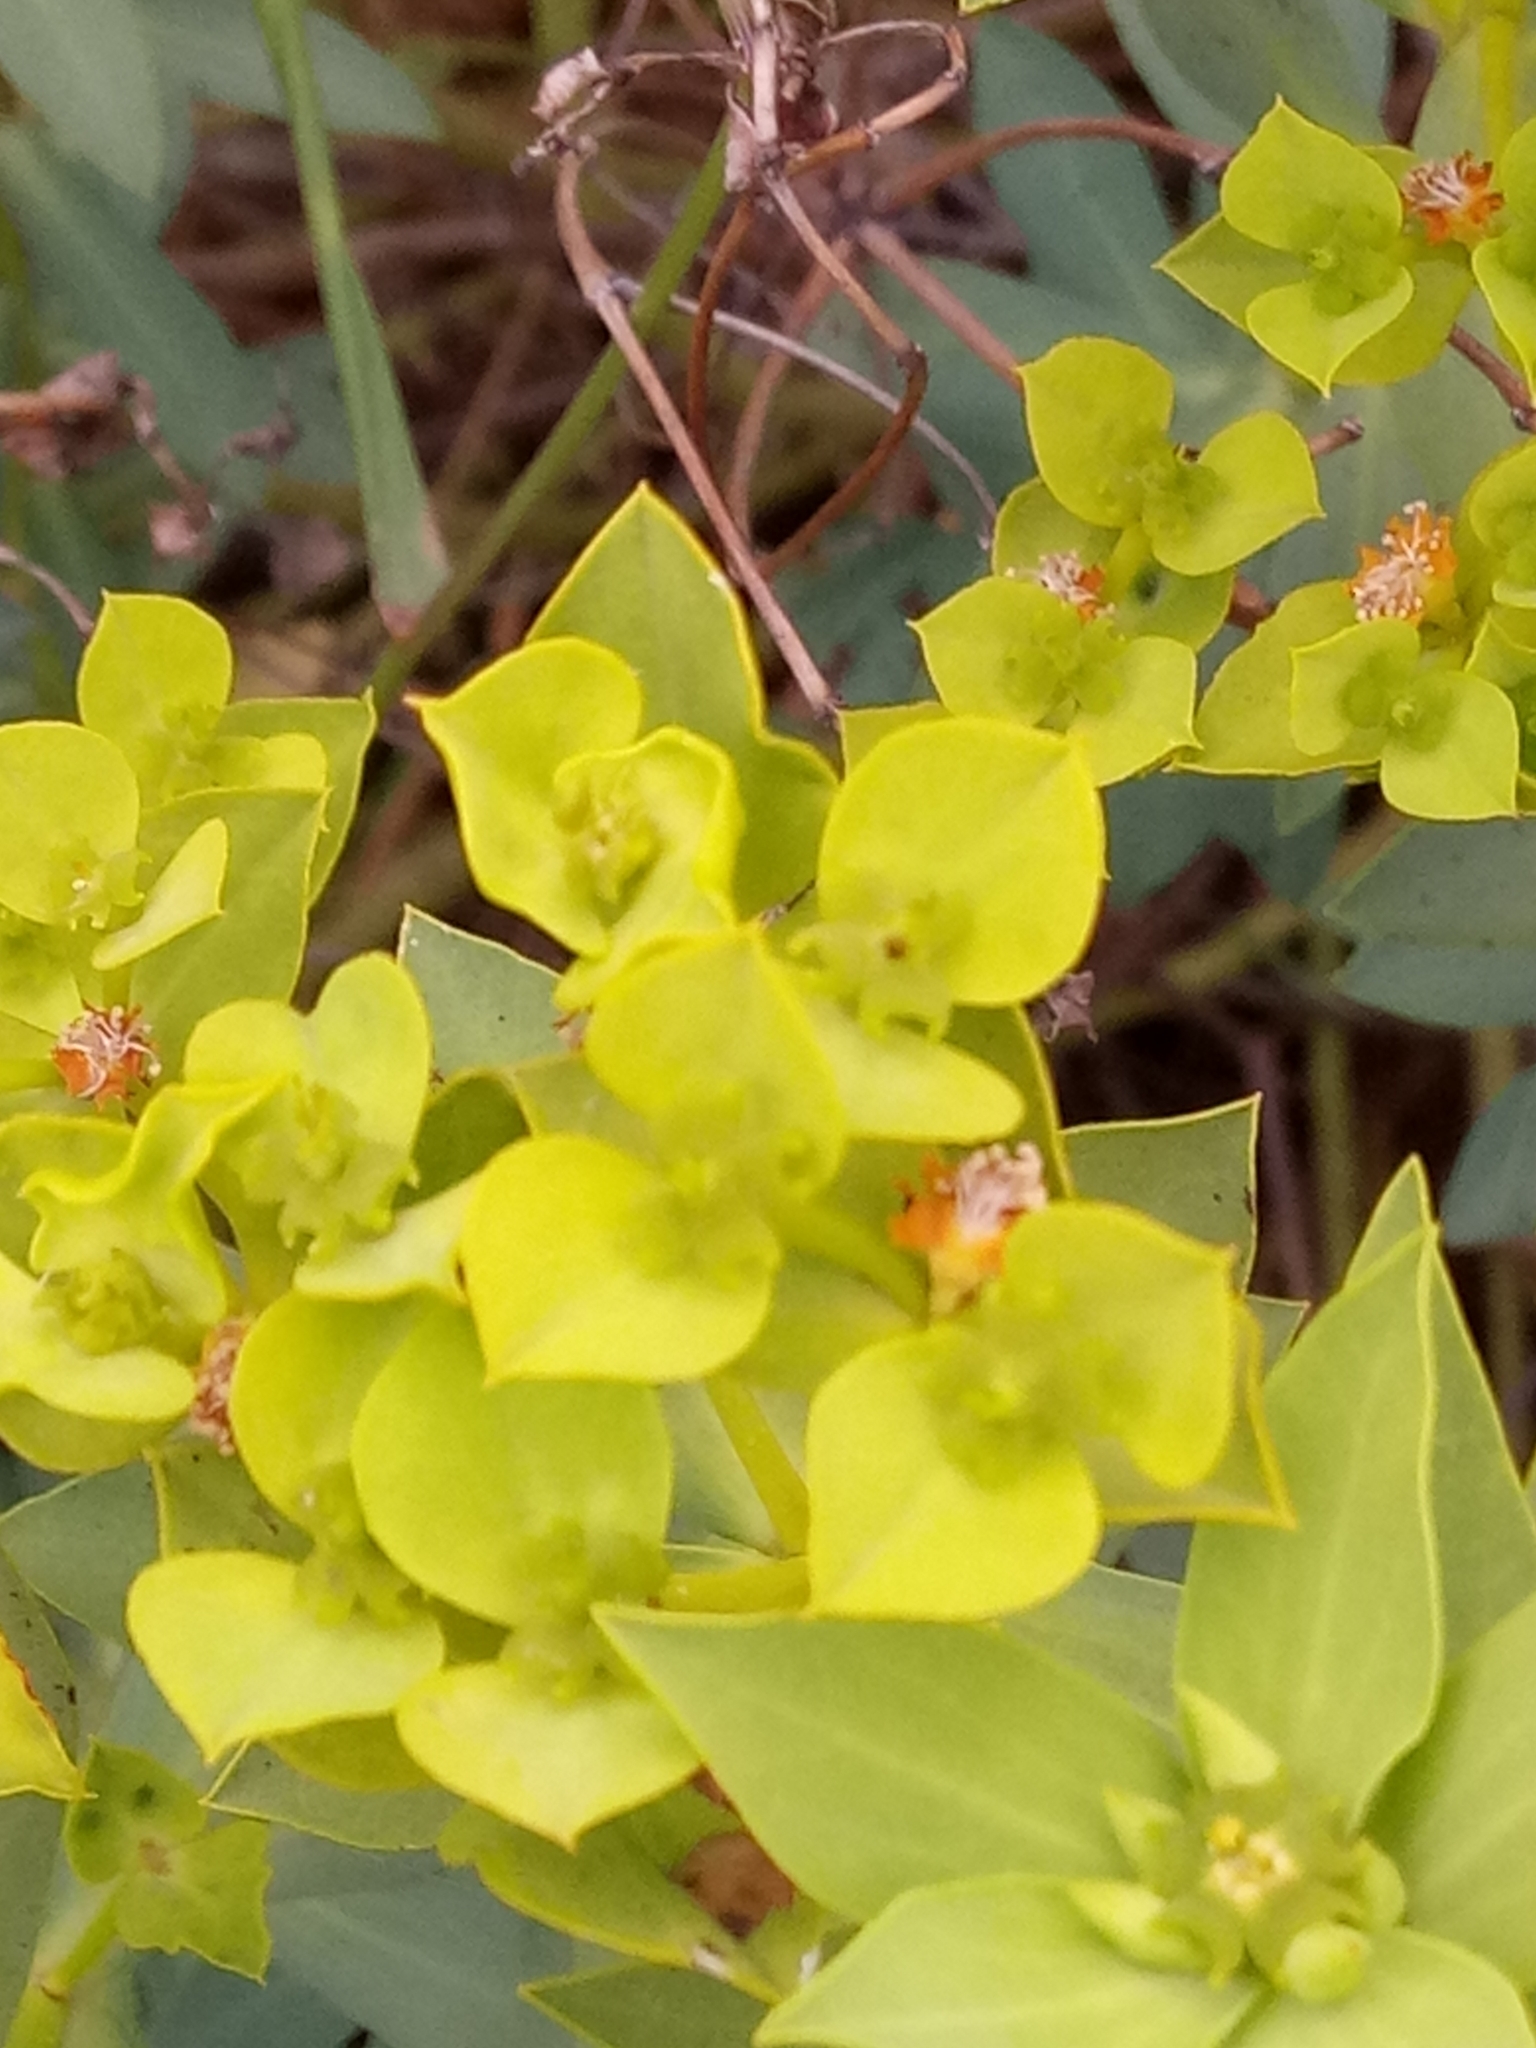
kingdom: Plantae
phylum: Tracheophyta
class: Magnoliopsida
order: Malpighiales
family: Euphorbiaceae
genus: Euphorbia
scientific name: Euphorbia bupleuroides
